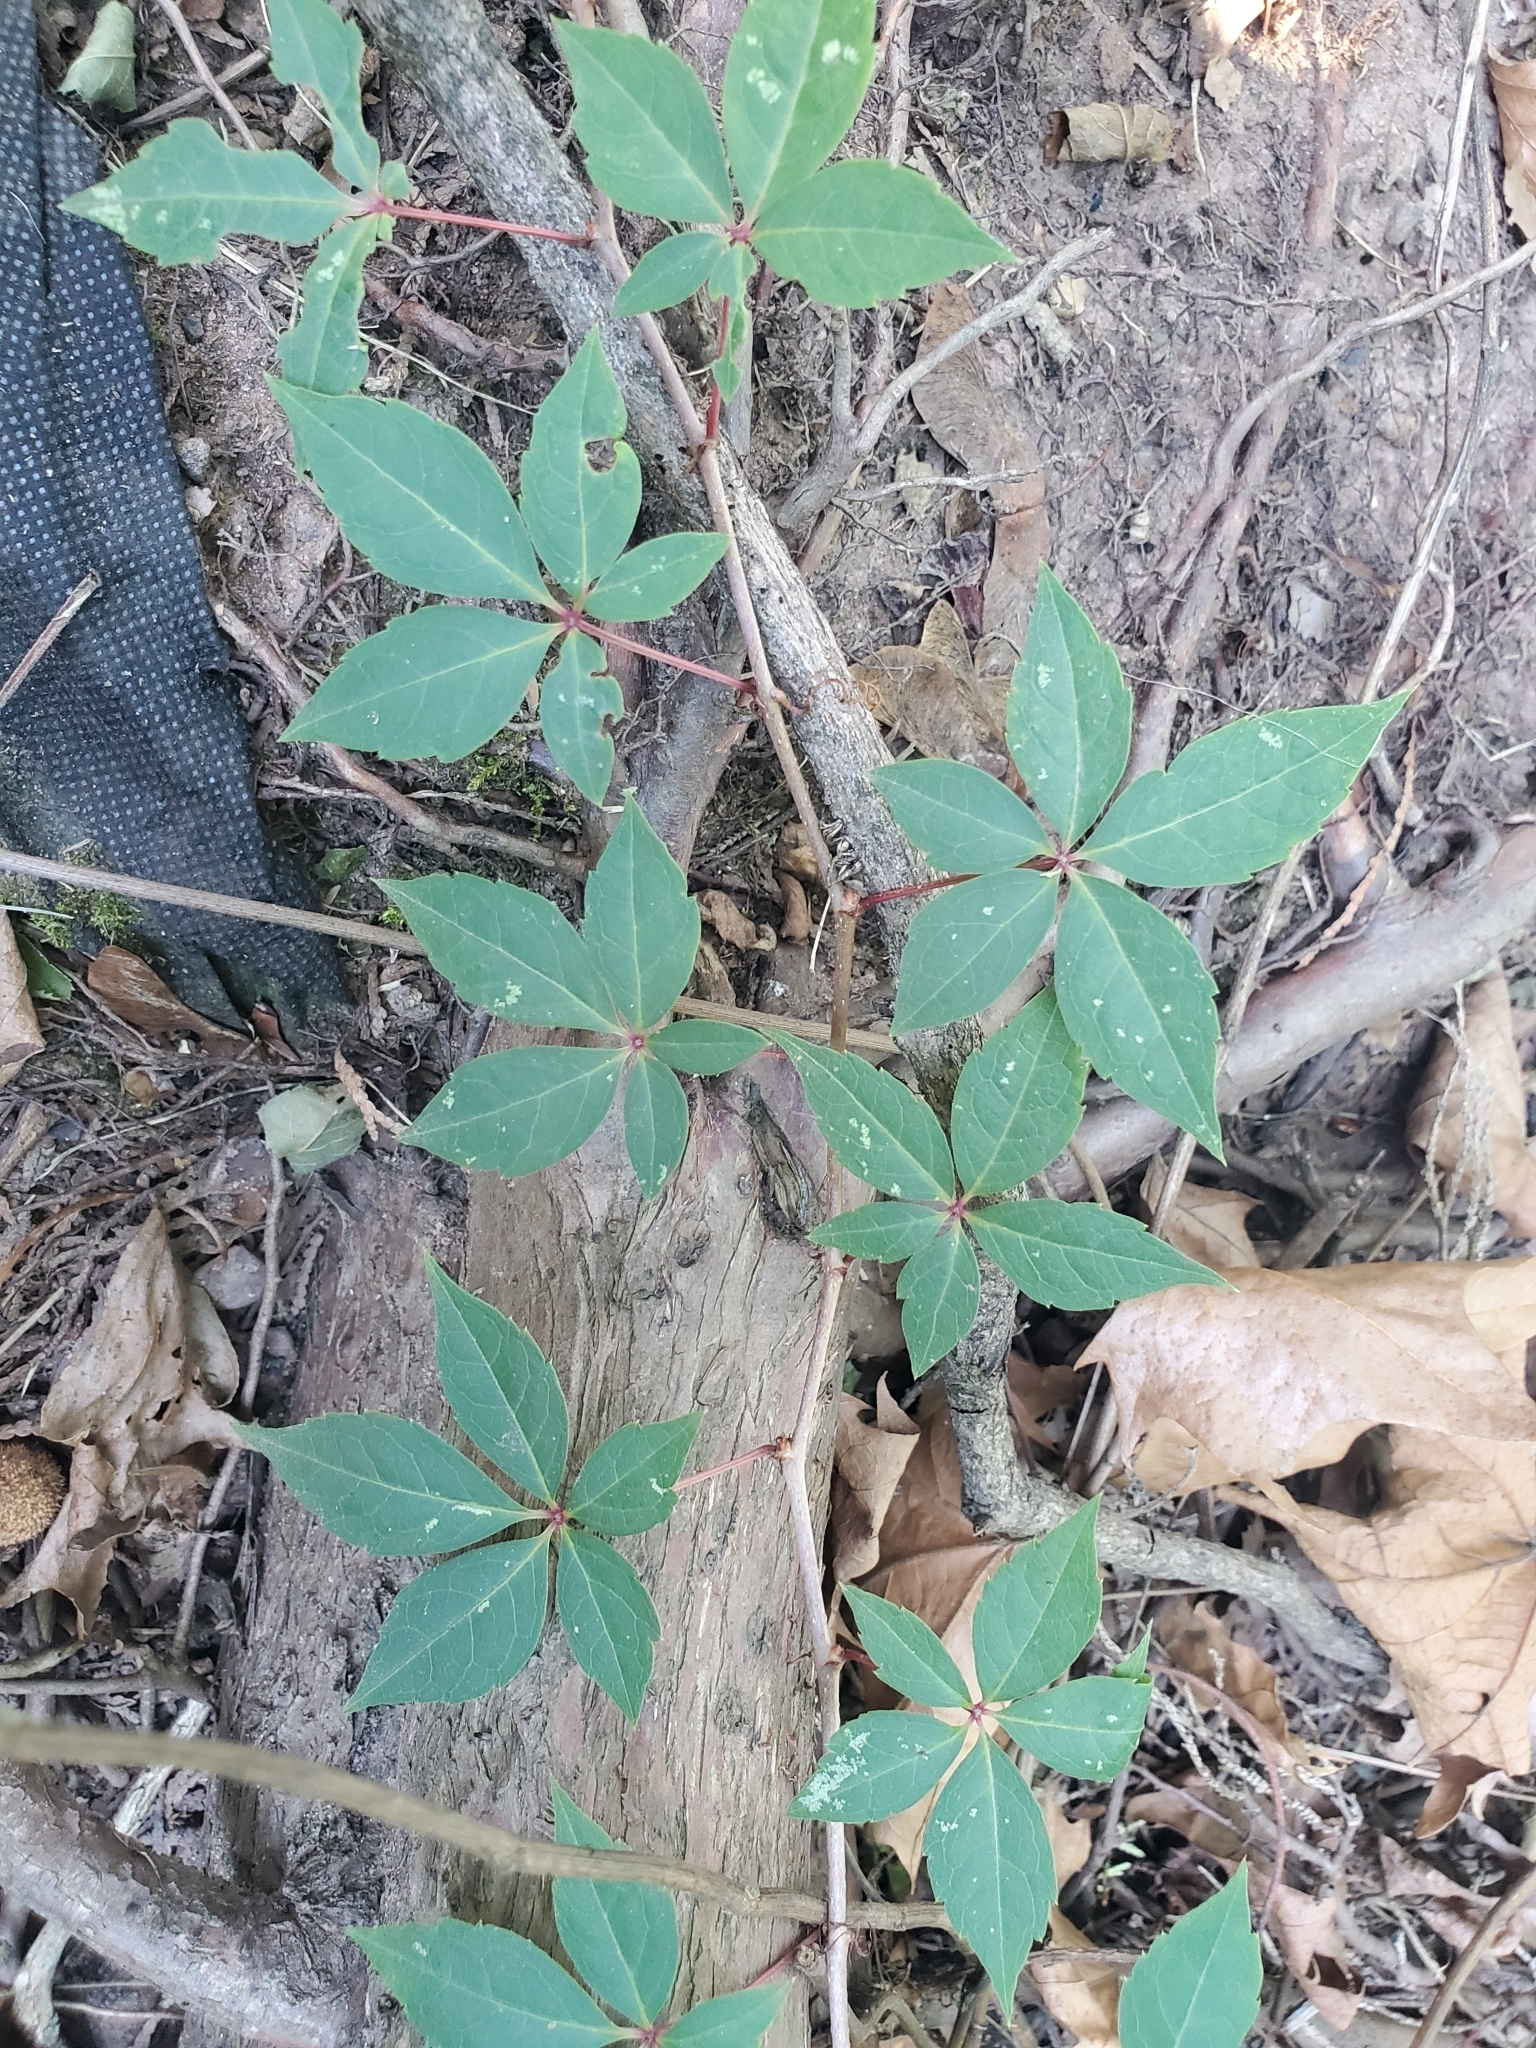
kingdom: Plantae
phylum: Tracheophyta
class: Magnoliopsida
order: Vitales
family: Vitaceae
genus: Parthenocissus
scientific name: Parthenocissus quinquefolia
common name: Virginia-creeper
